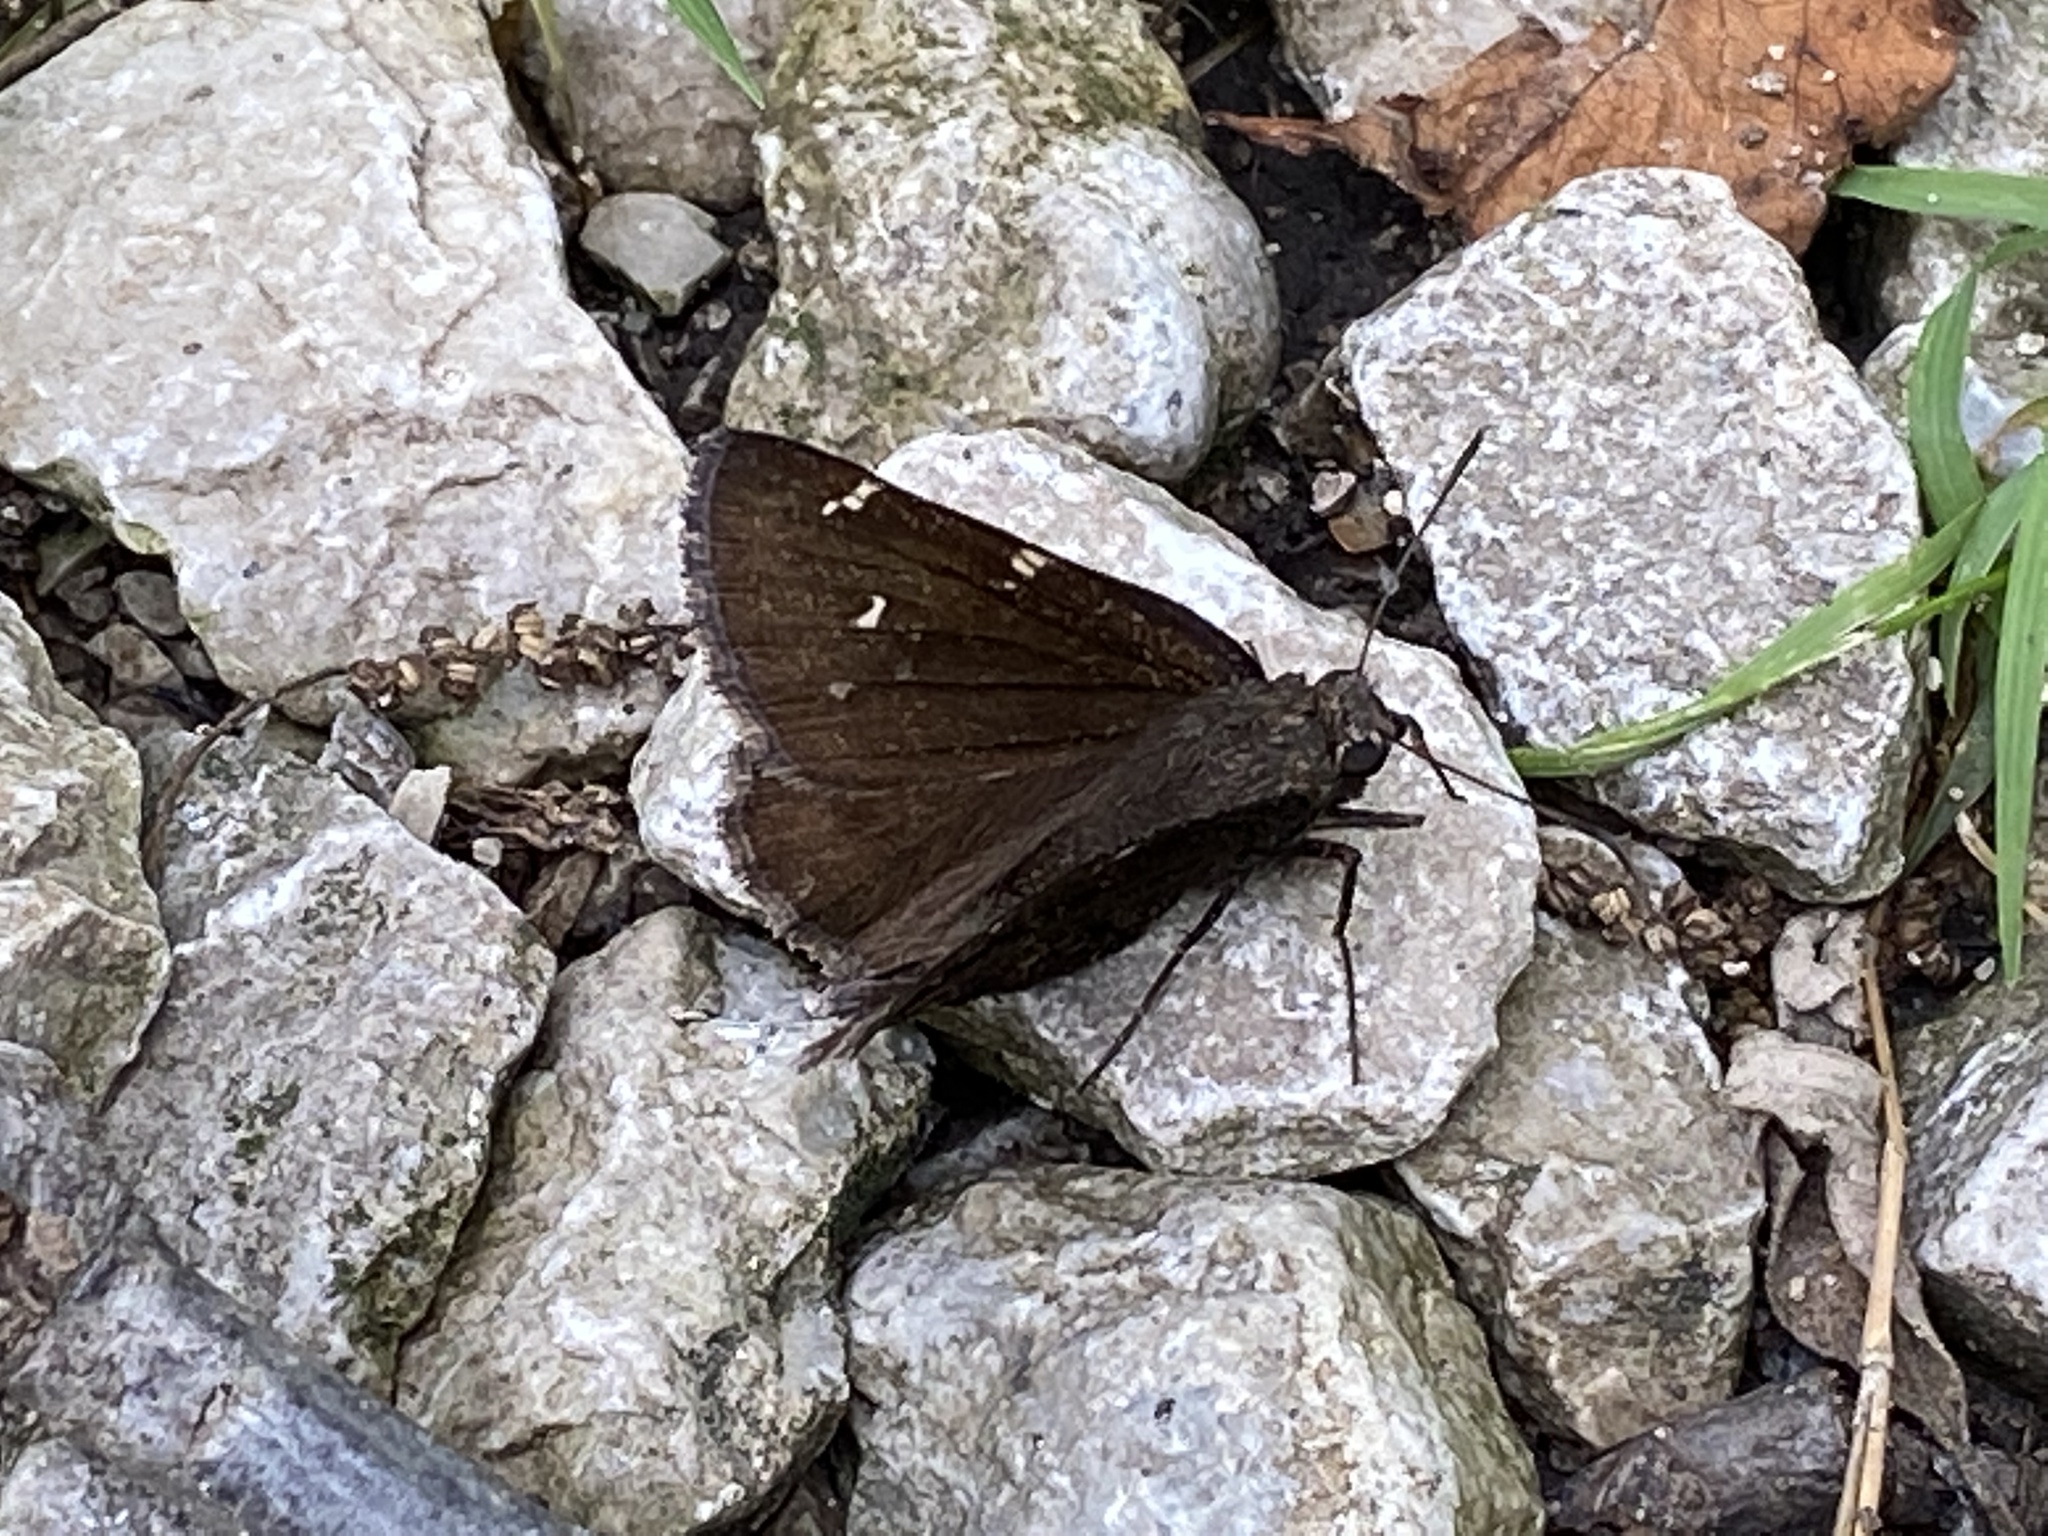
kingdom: Animalia
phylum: Arthropoda
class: Insecta
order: Lepidoptera
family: Hesperiidae
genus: Thorybes
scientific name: Thorybes pylades
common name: Northern cloudywing
